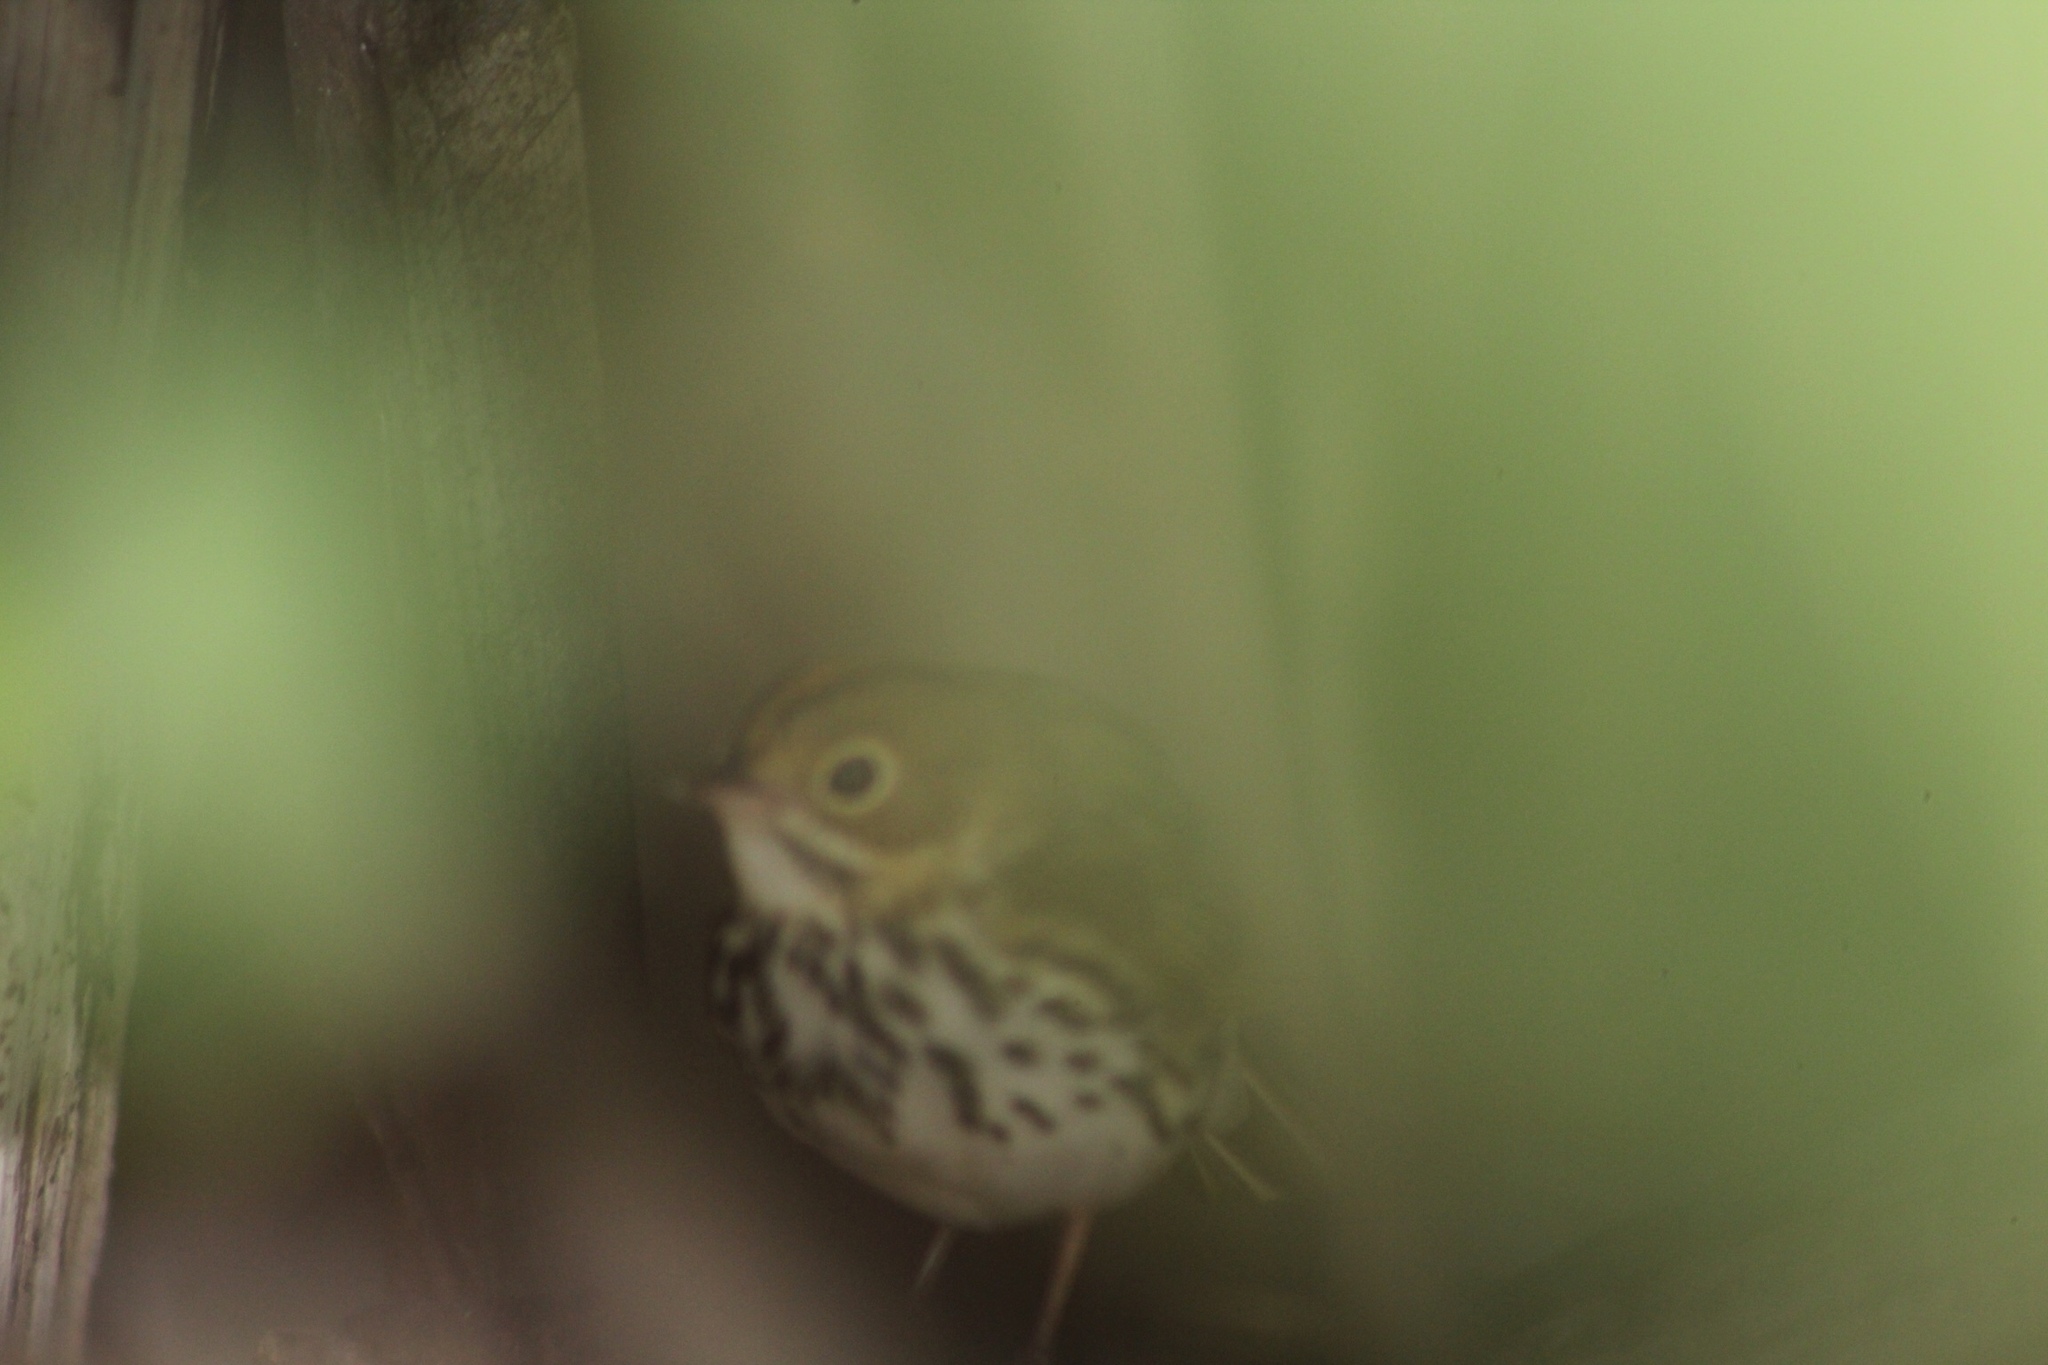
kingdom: Animalia
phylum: Chordata
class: Aves
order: Passeriformes
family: Parulidae
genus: Seiurus
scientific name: Seiurus aurocapilla
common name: Ovenbird
